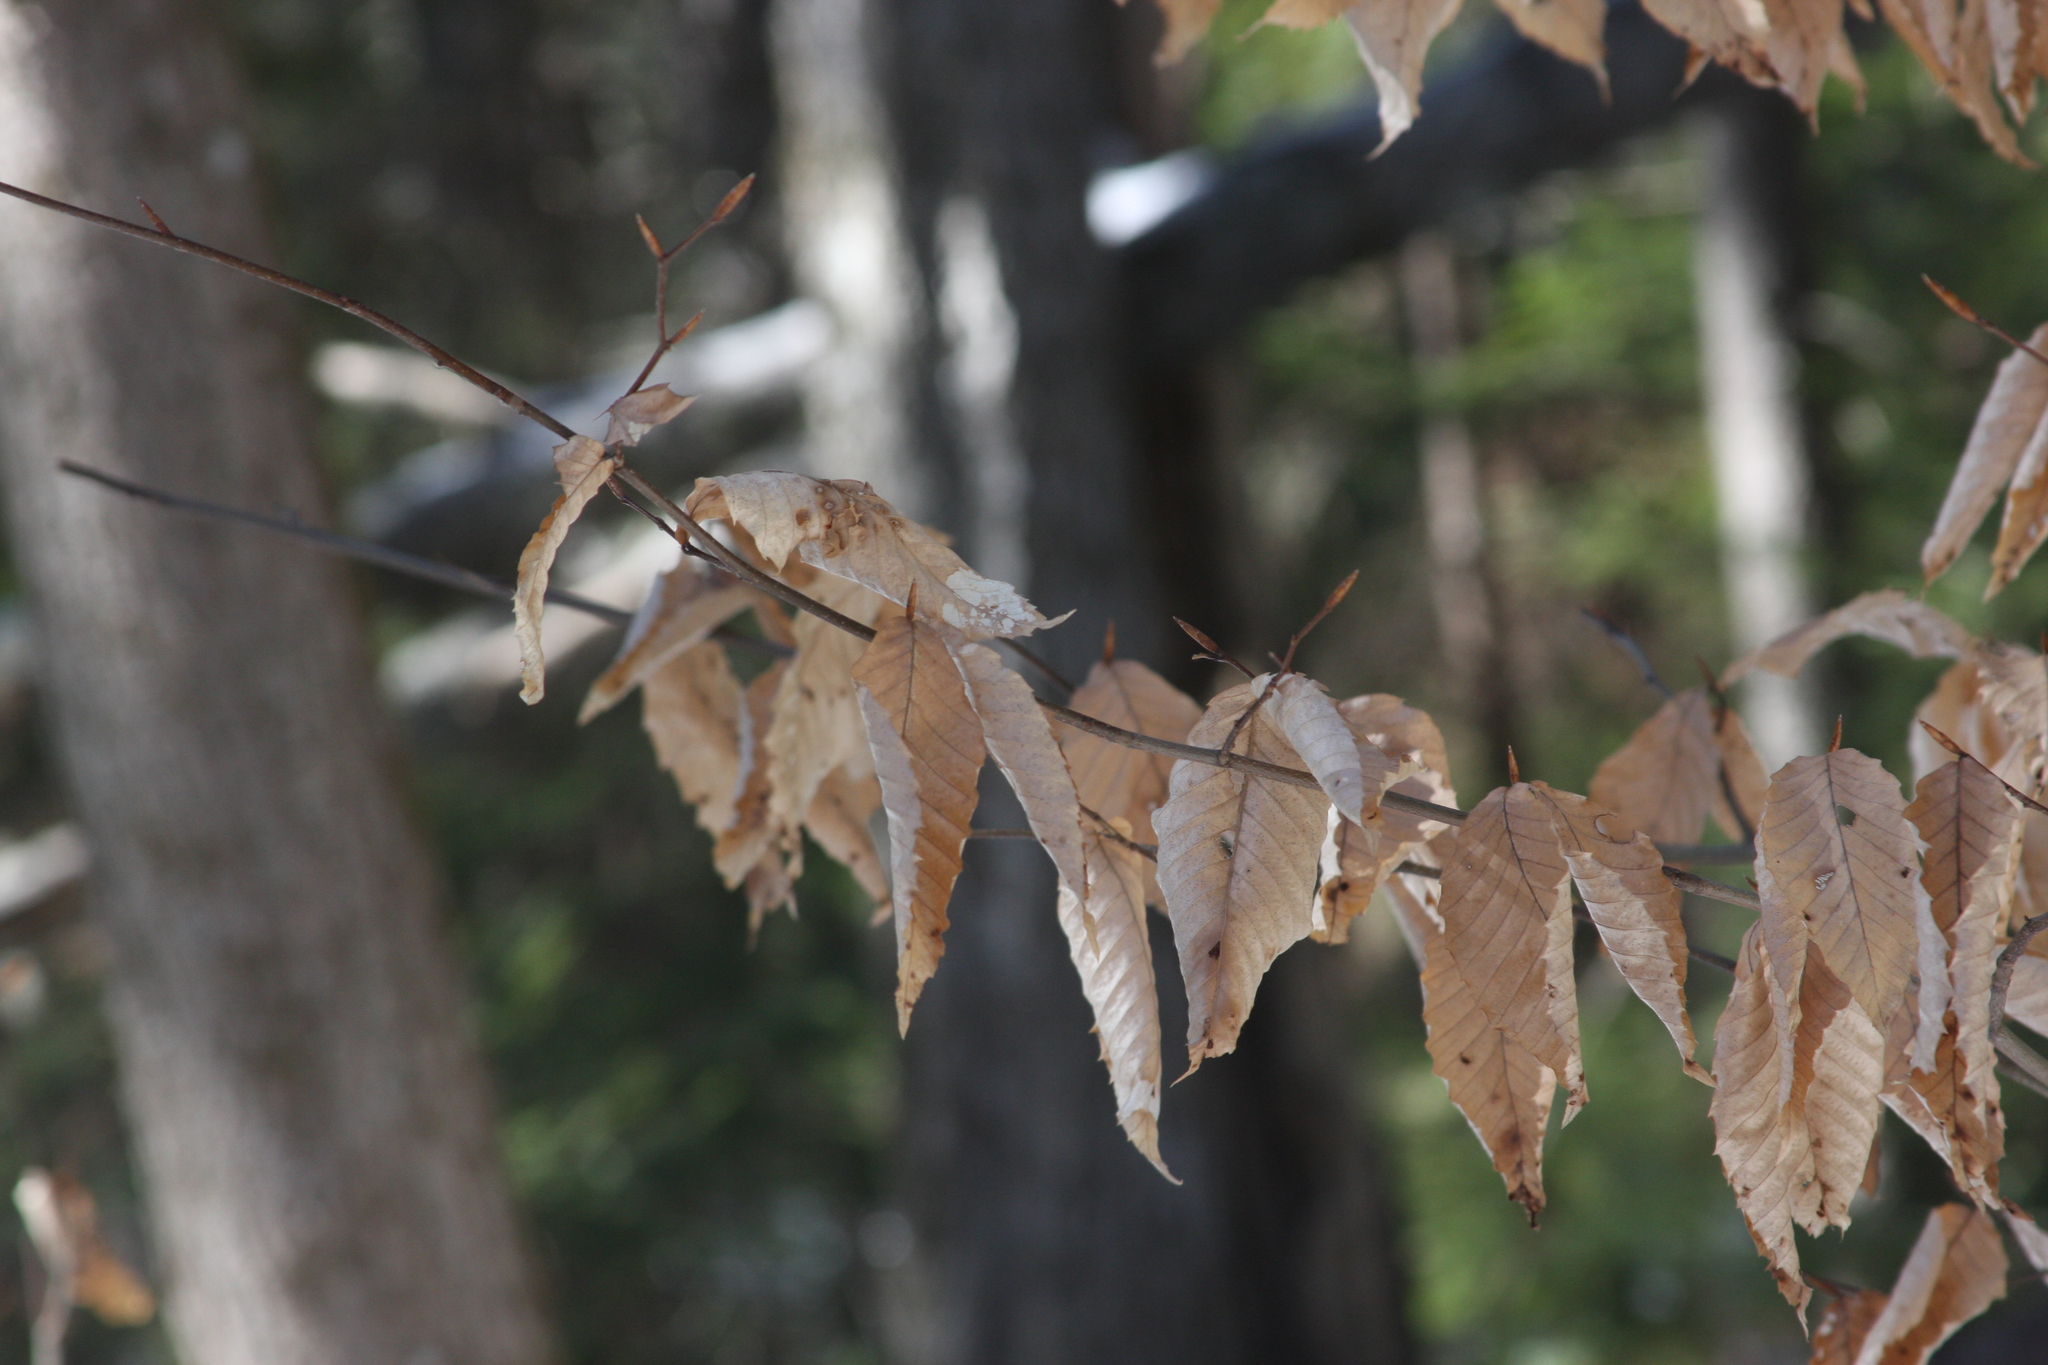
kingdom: Plantae
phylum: Tracheophyta
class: Magnoliopsida
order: Fagales
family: Fagaceae
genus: Fagus
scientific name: Fagus grandifolia
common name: American beech
